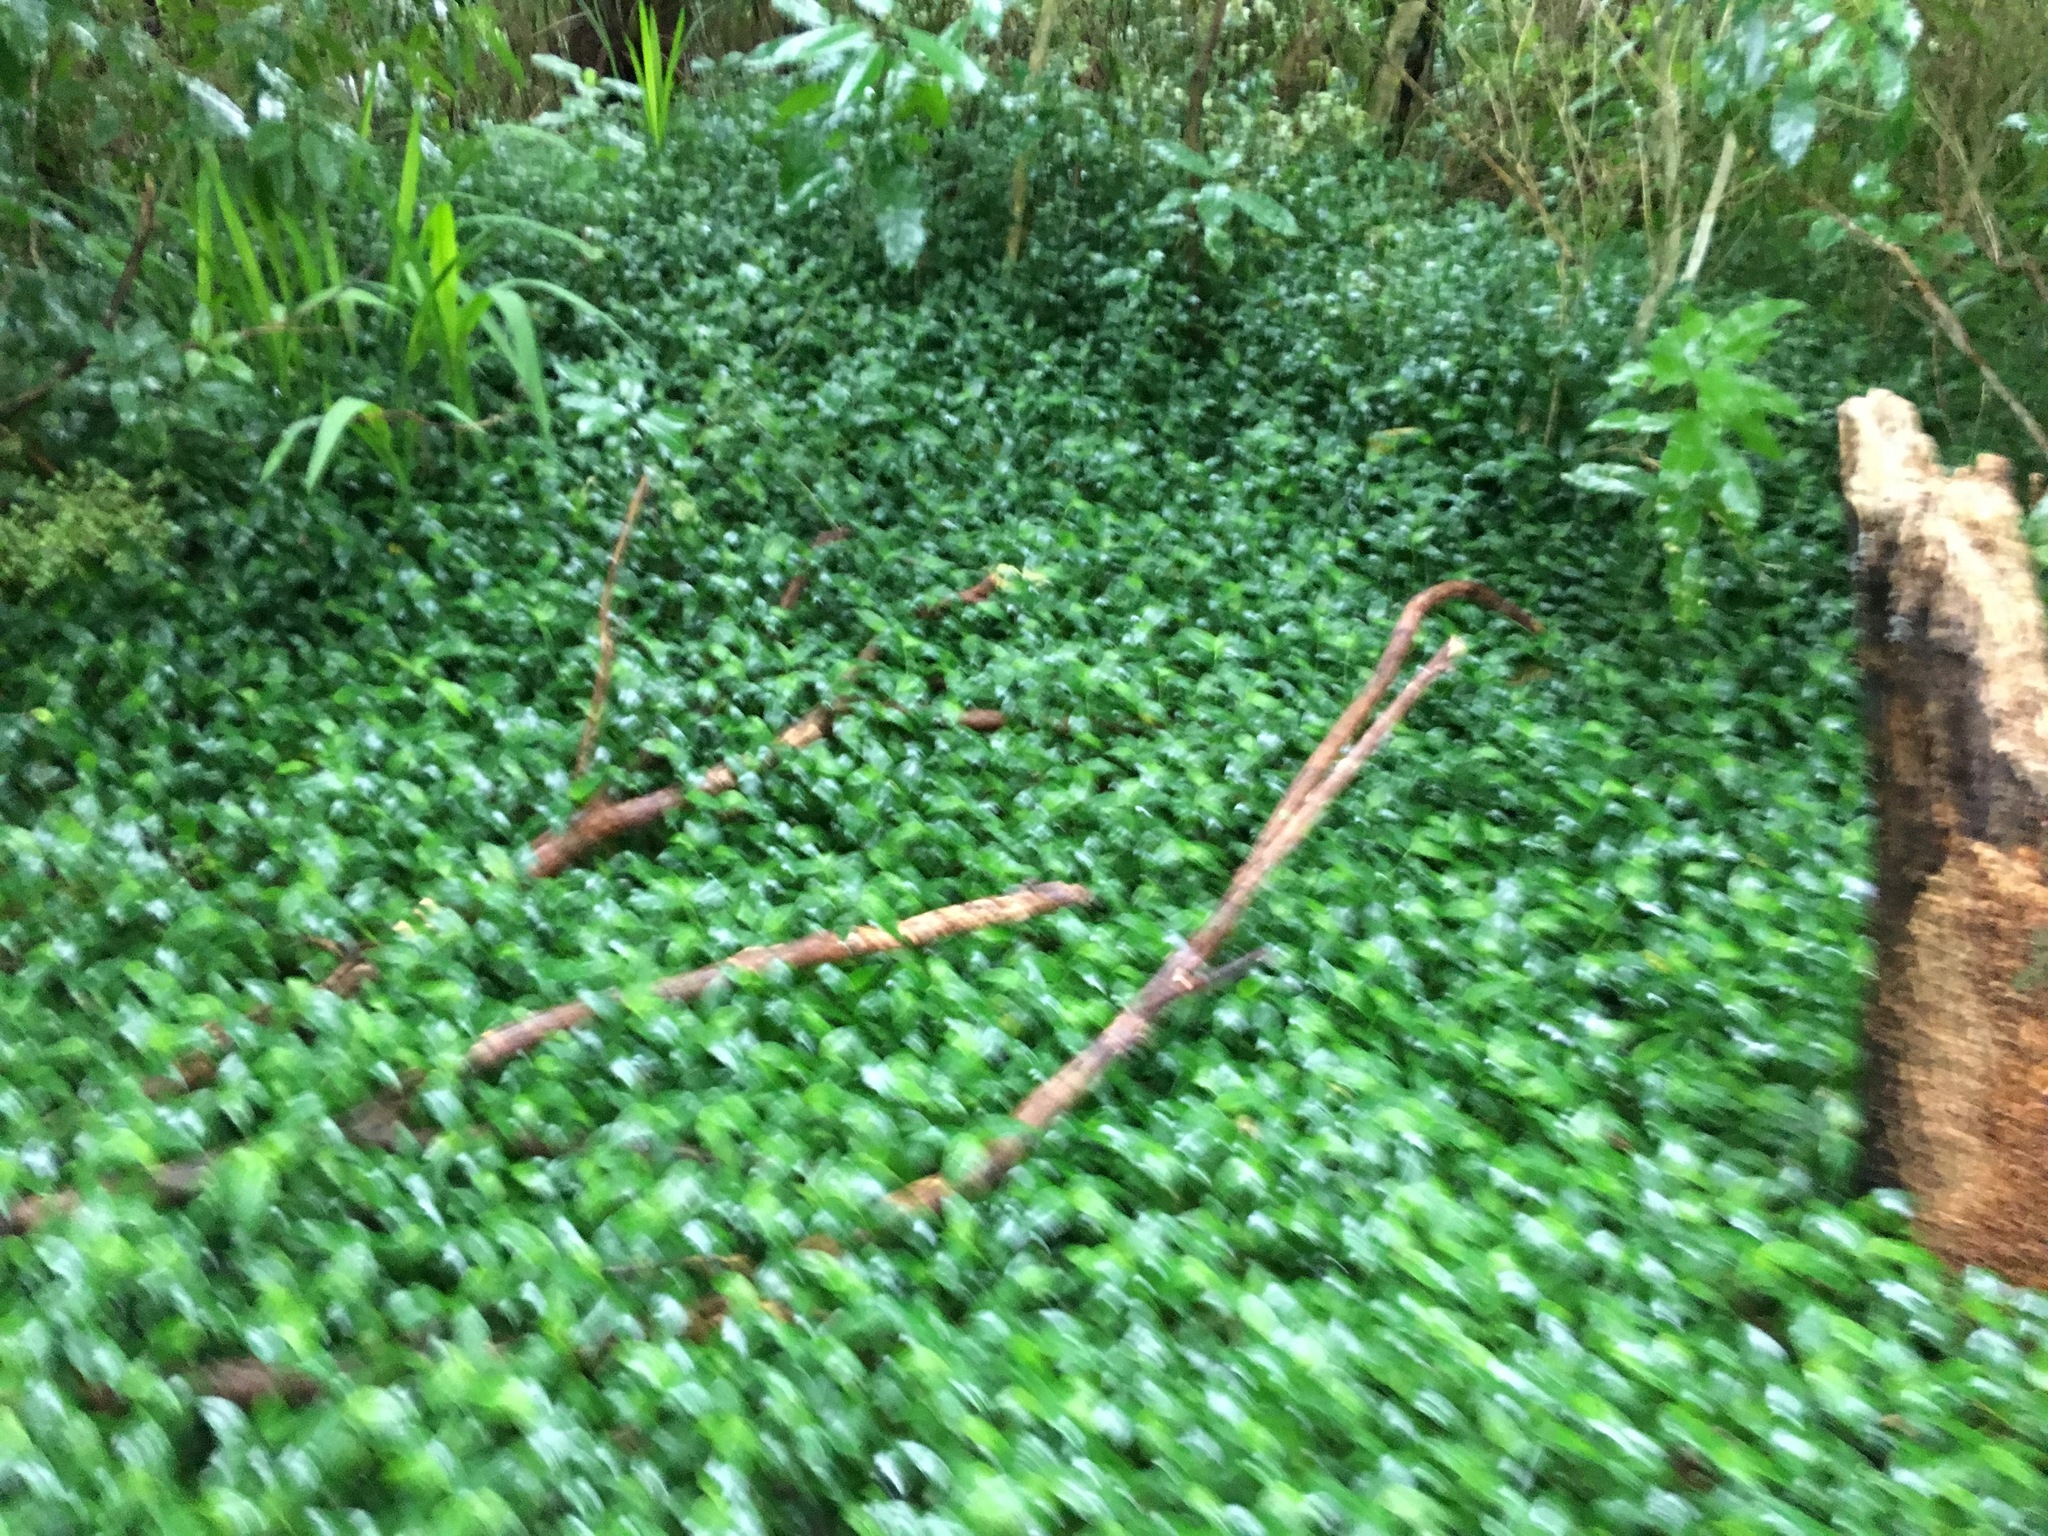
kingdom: Plantae
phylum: Tracheophyta
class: Liliopsida
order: Commelinales
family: Commelinaceae
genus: Tradescantia
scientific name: Tradescantia fluminensis
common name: Wandering-jew
